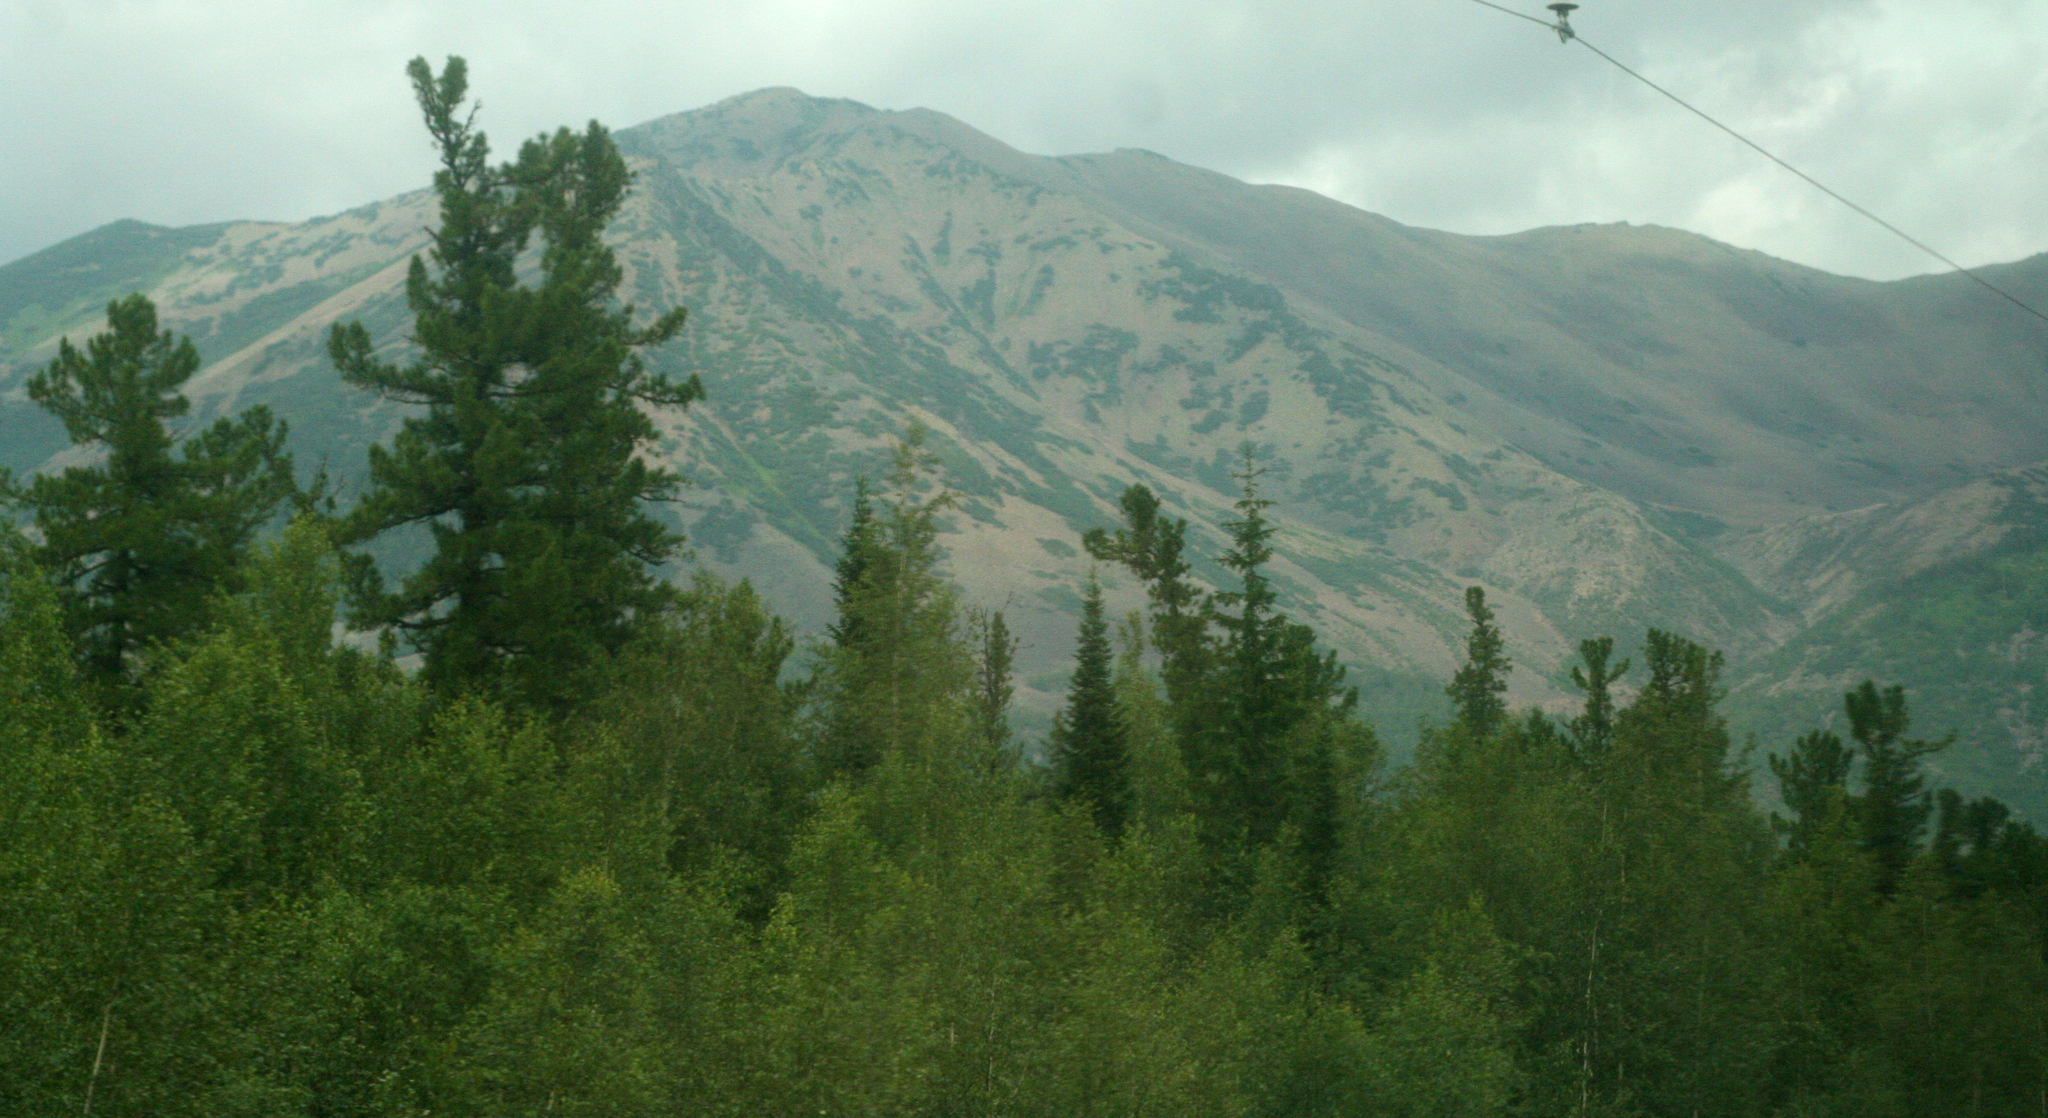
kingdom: Plantae
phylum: Tracheophyta
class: Pinopsida
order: Pinales
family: Pinaceae
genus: Pinus
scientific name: Pinus sibirica
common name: Siberian pine
